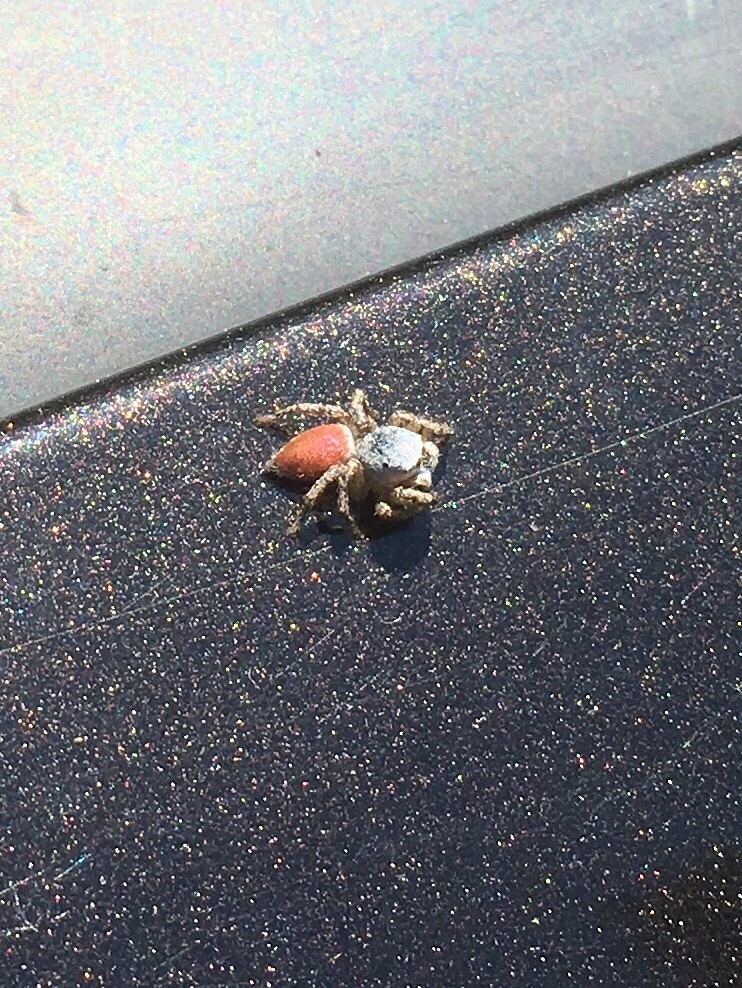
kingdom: Animalia
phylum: Arthropoda
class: Arachnida
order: Araneae
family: Salticidae
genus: Habronattus
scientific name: Habronattus decorus
